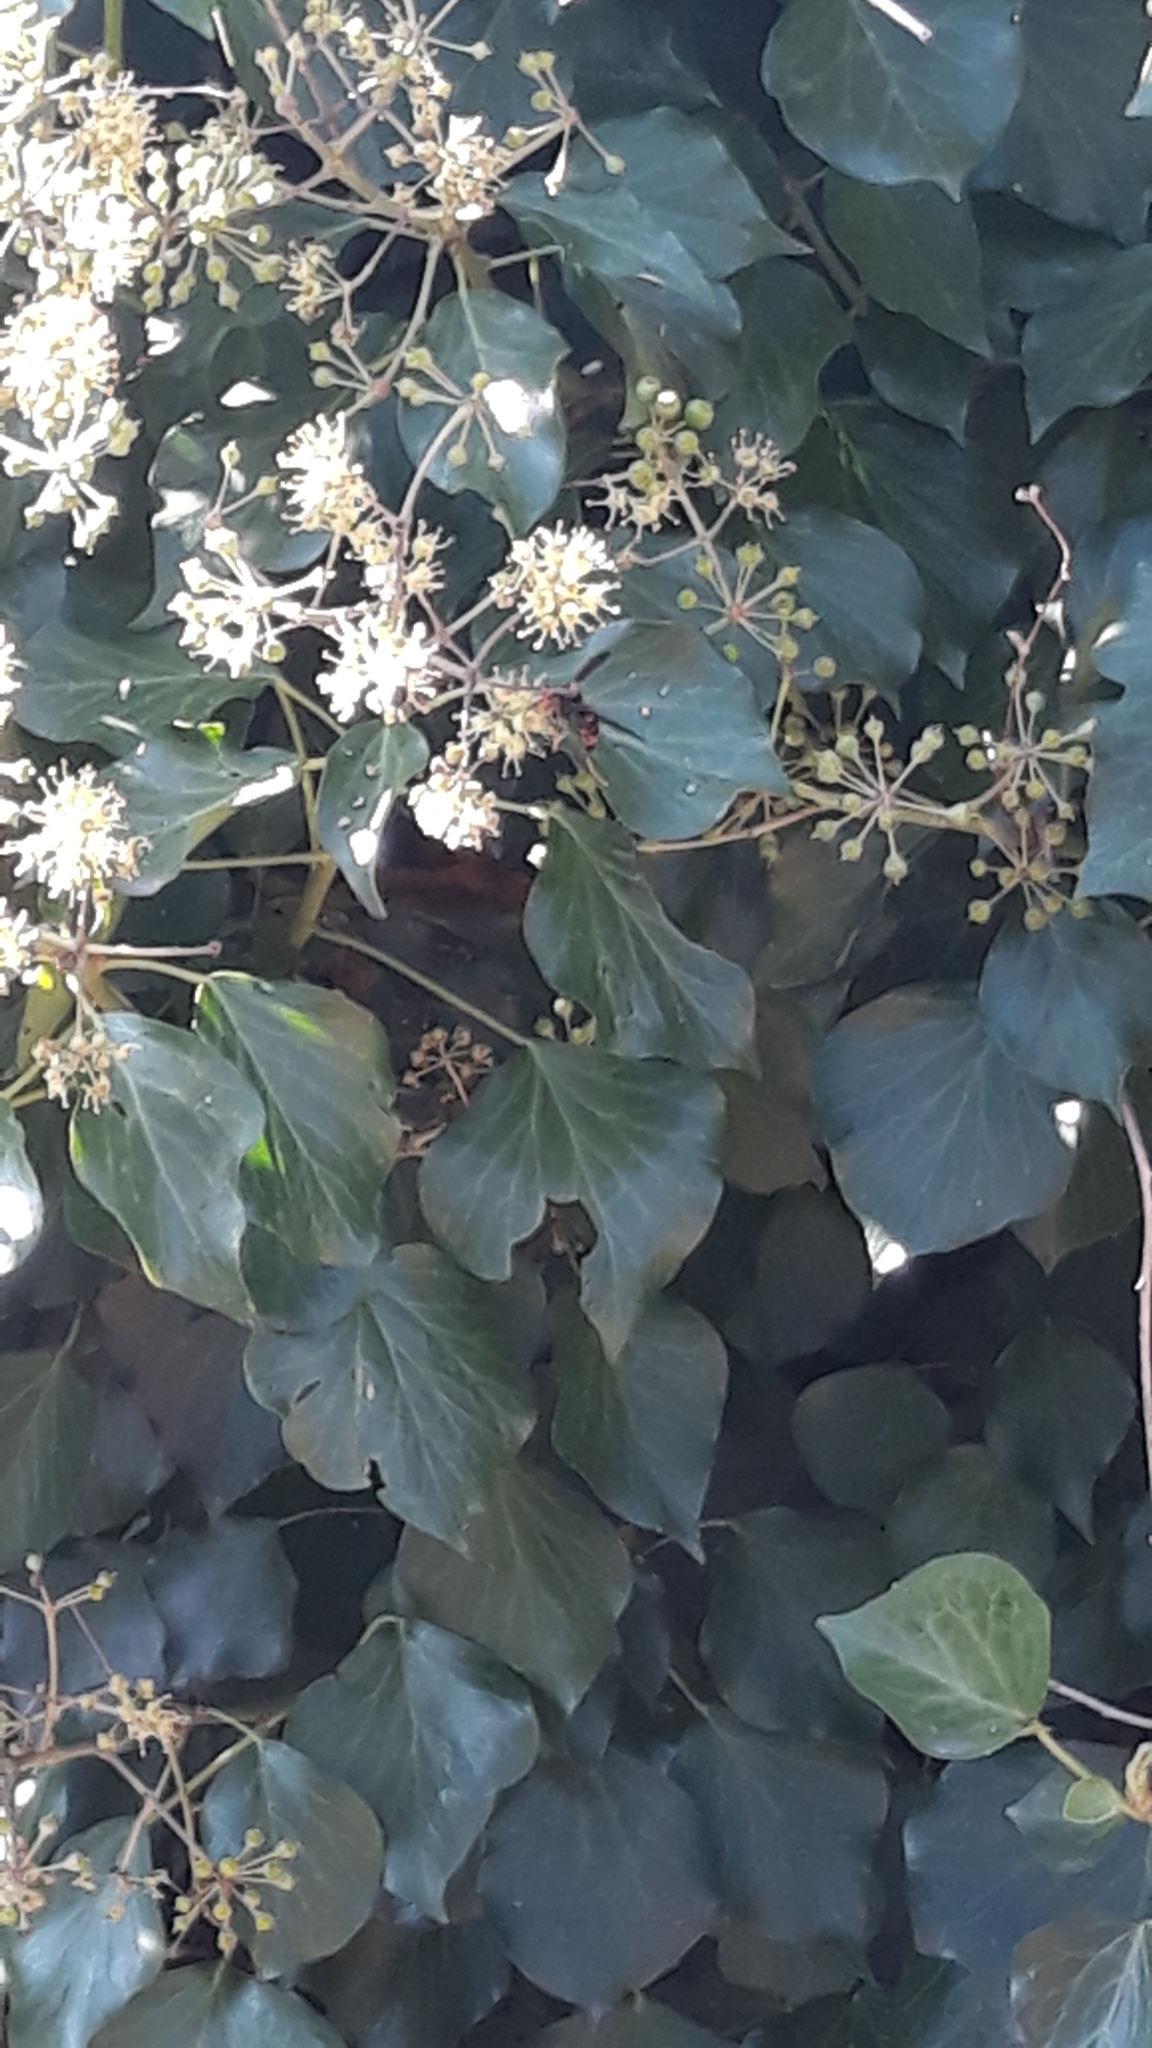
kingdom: Animalia
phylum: Arthropoda
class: Insecta
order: Hymenoptera
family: Vespidae
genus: Vespa
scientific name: Vespa velutina
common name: Asian hornet
